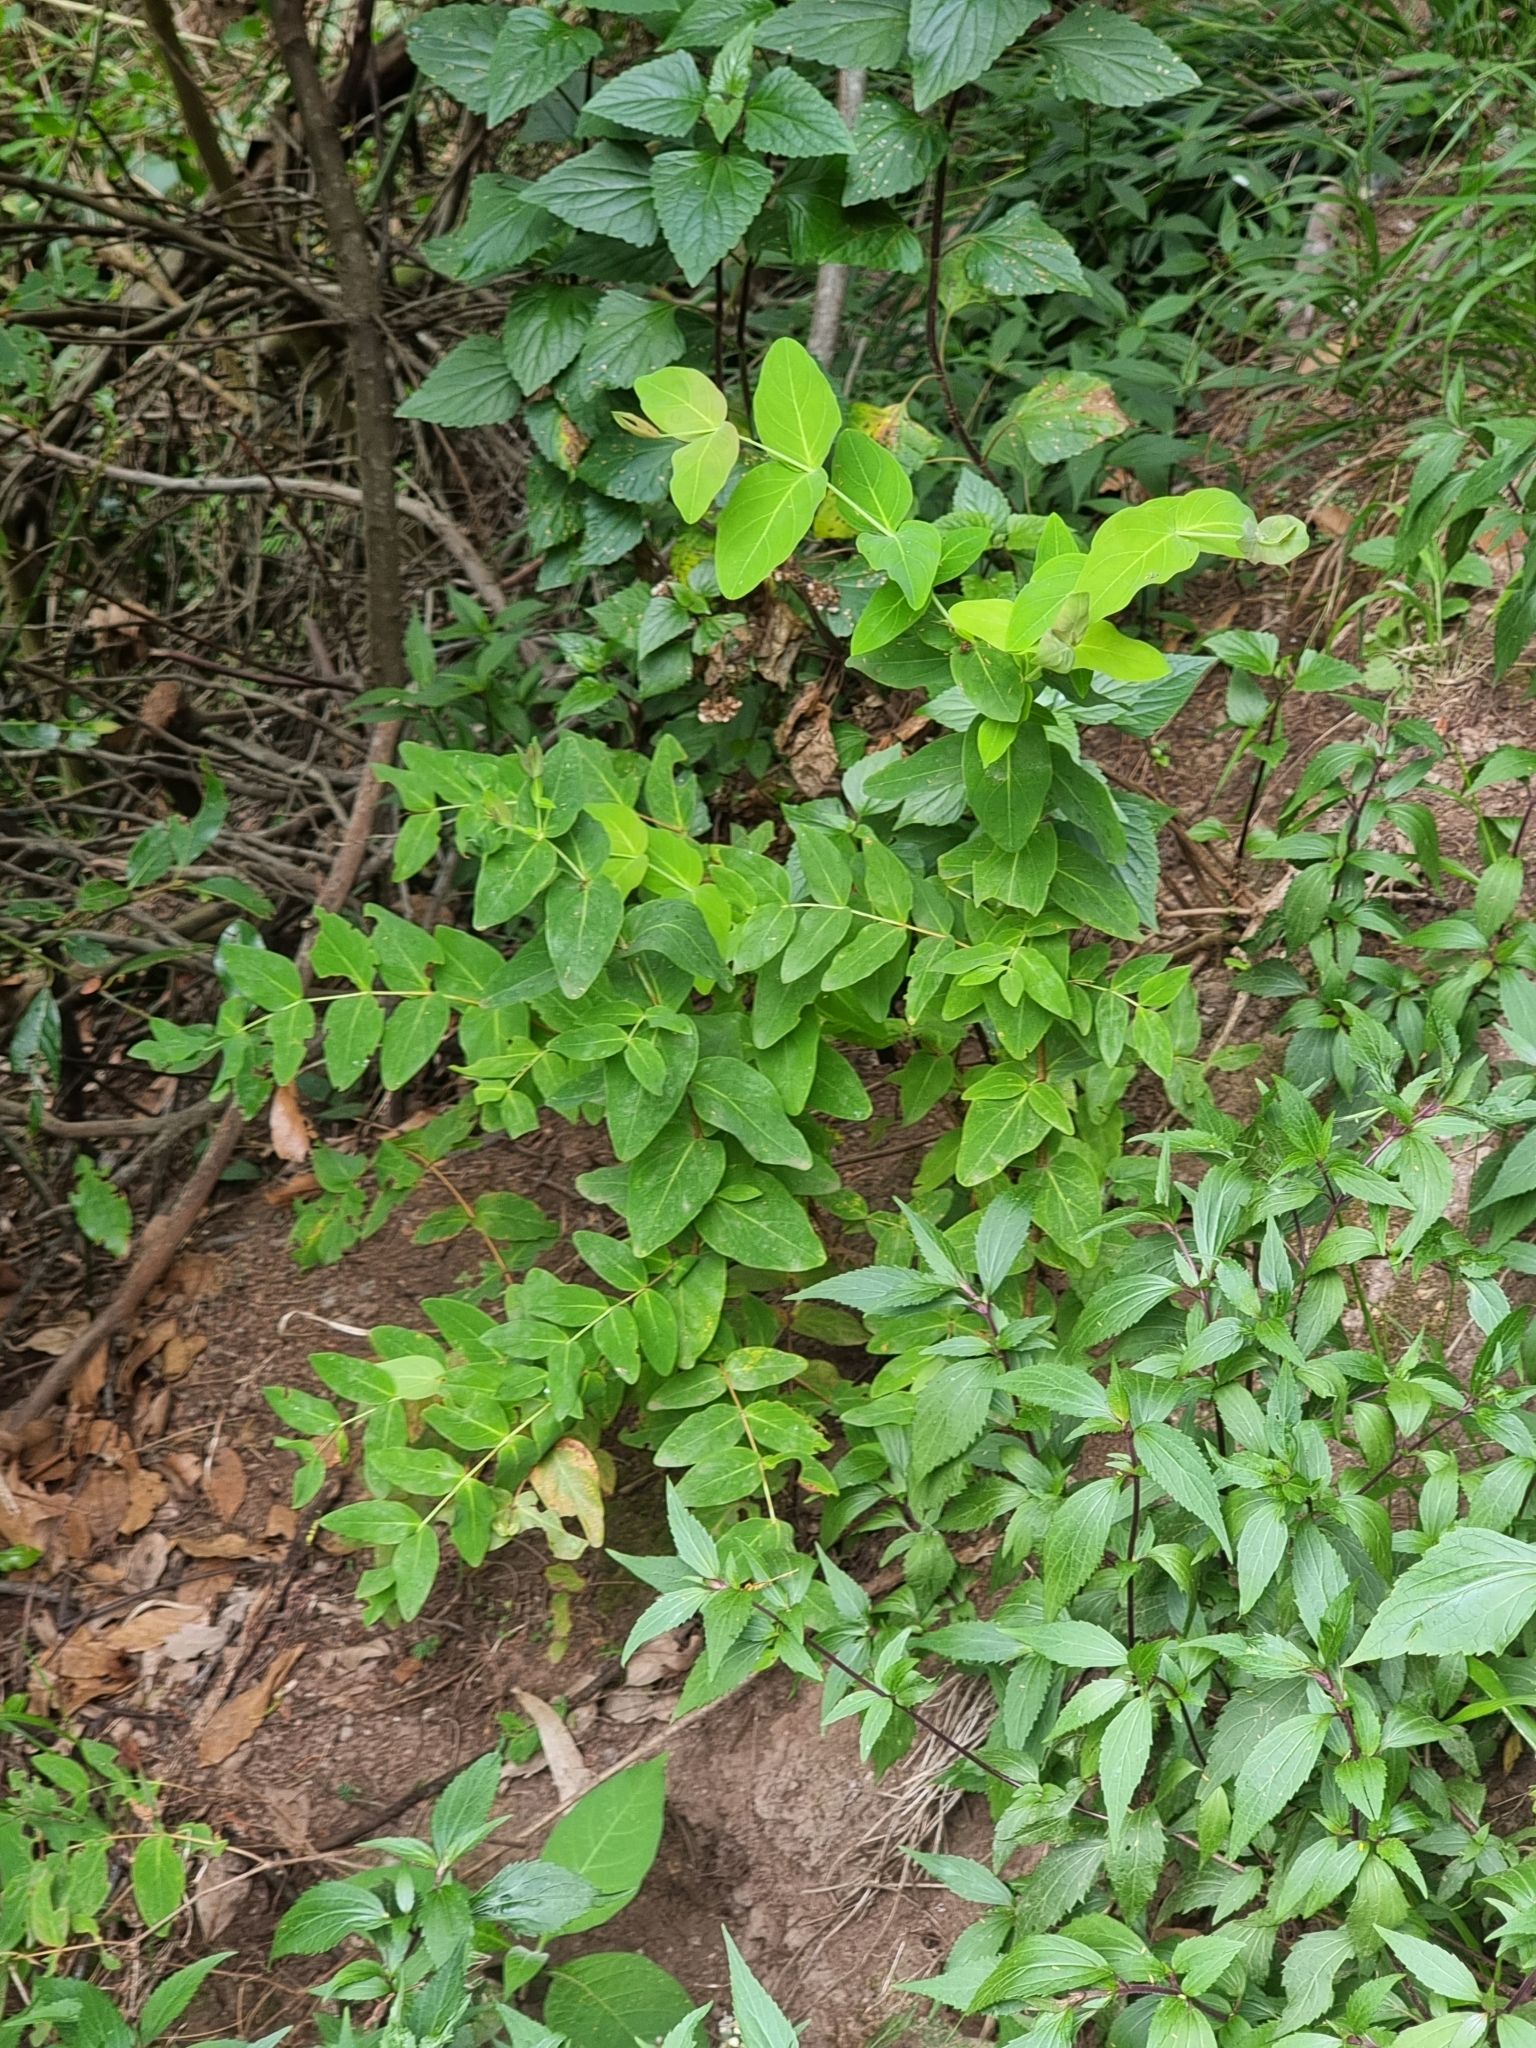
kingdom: Plantae
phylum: Tracheophyta
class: Magnoliopsida
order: Malpighiales
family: Hypericaceae
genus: Hypericum
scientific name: Hypericum grandifolium
